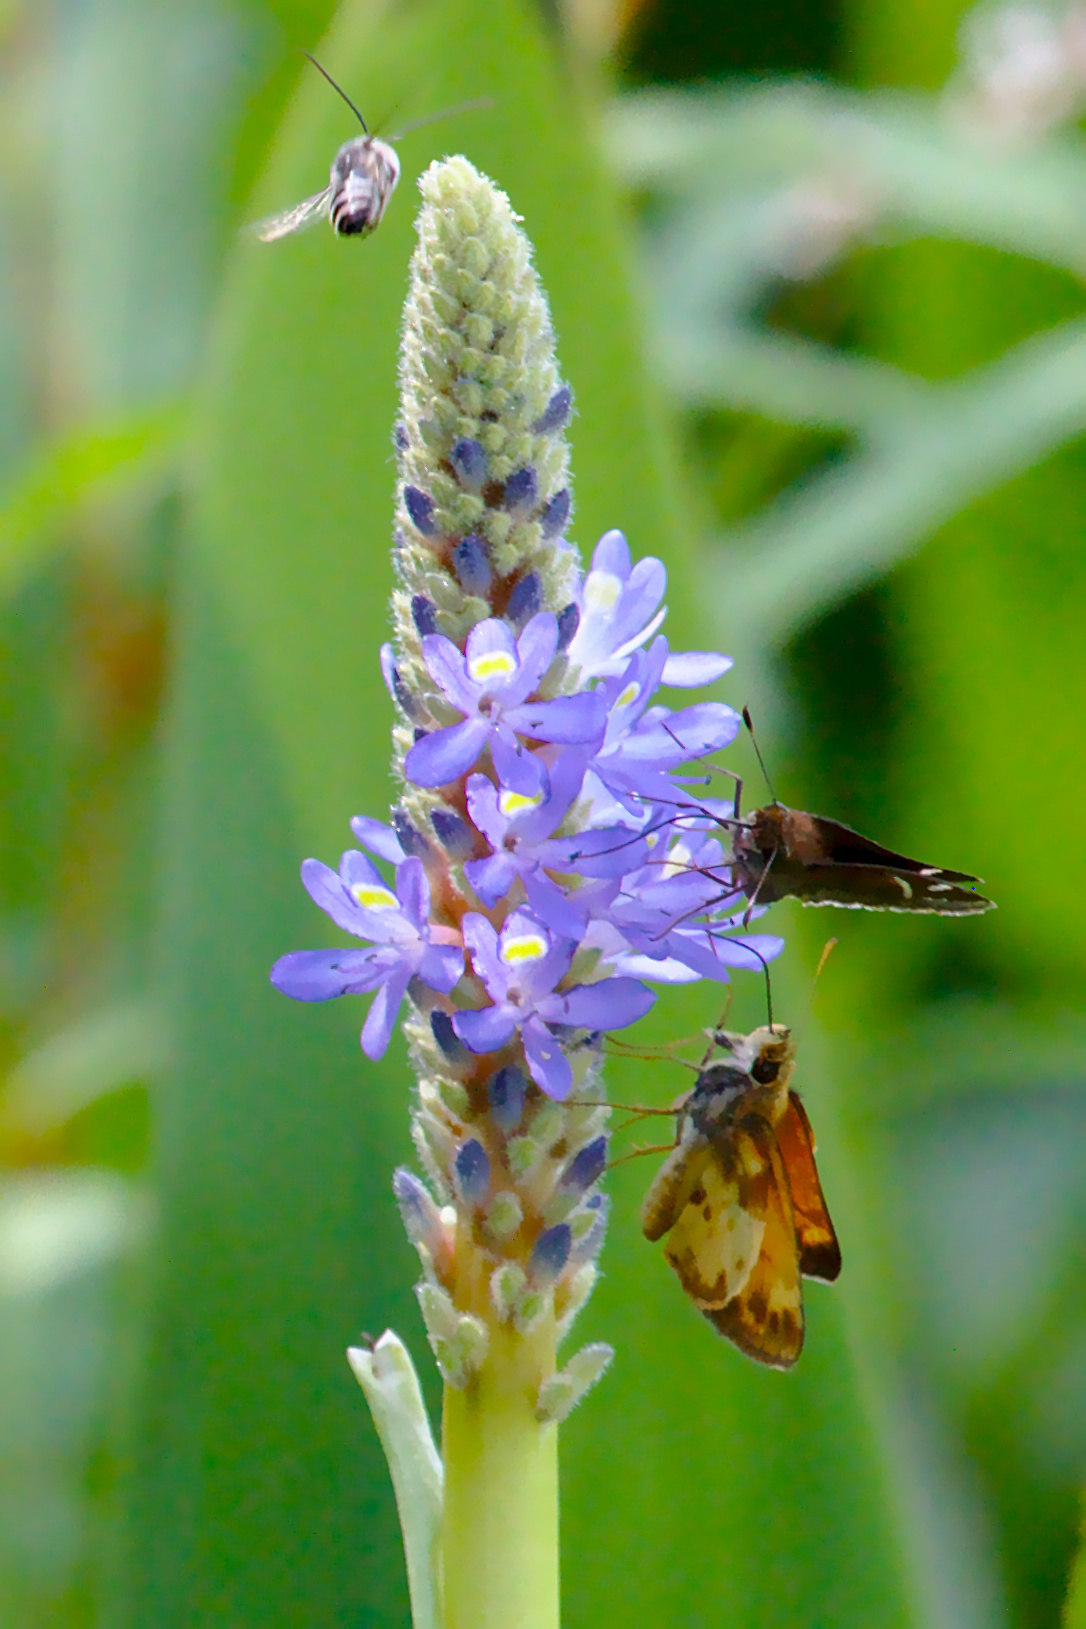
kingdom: Animalia
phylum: Arthropoda
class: Insecta
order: Lepidoptera
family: Hesperiidae
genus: Lon
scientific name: Lon zabulon
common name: Zabulon skipper
